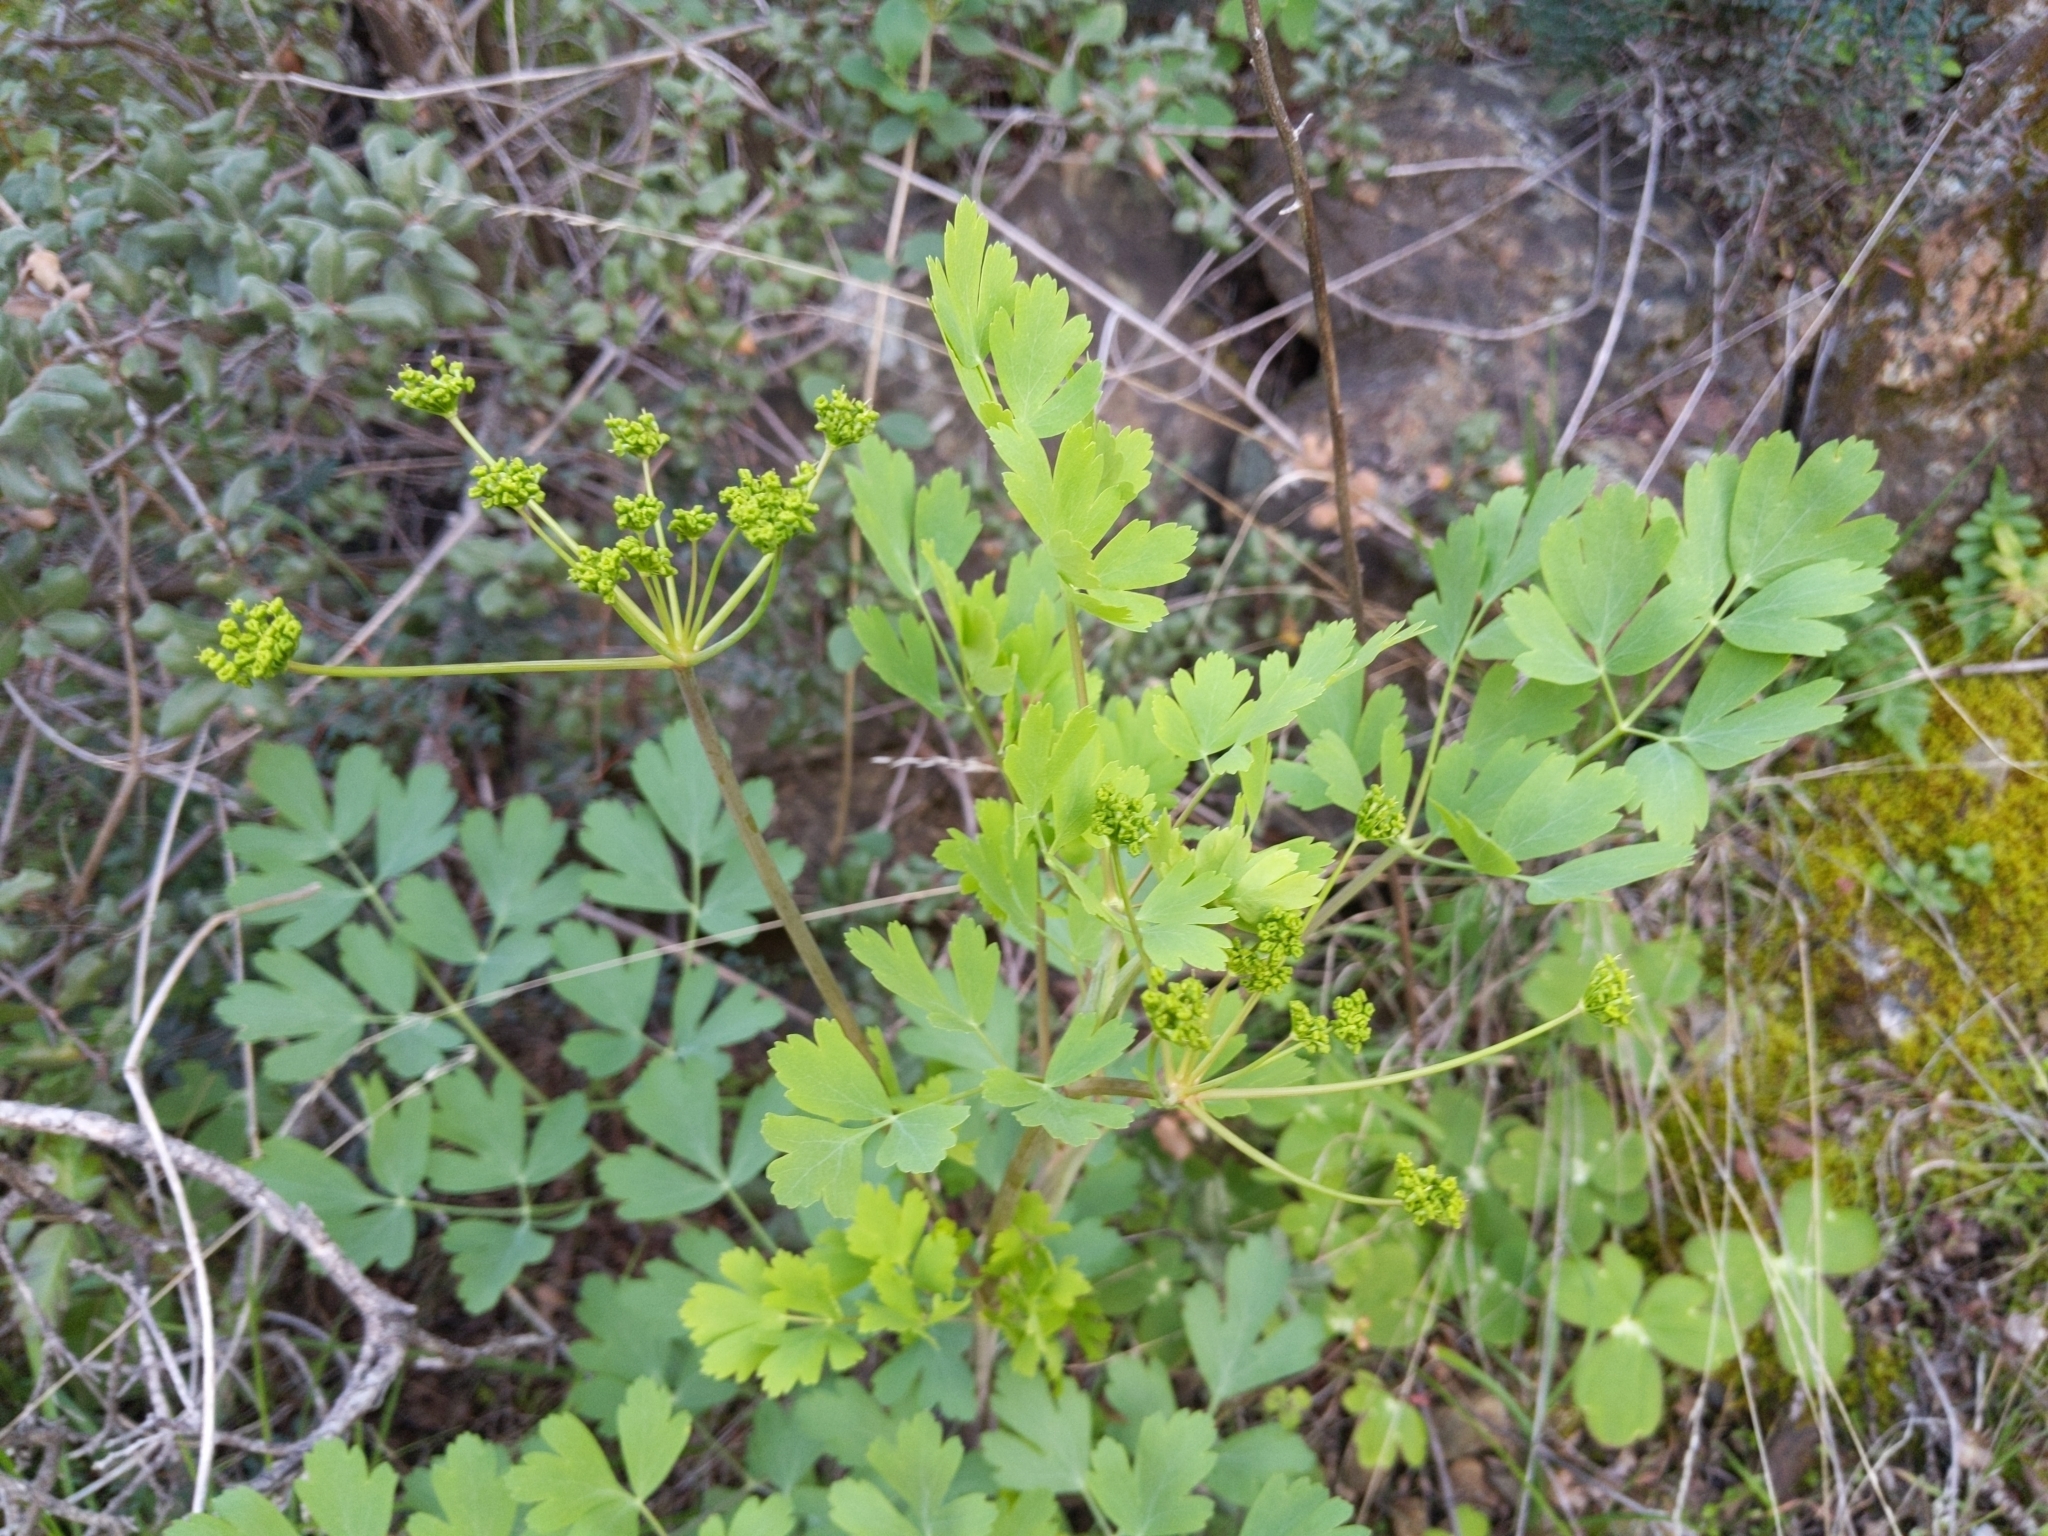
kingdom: Plantae
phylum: Tracheophyta
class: Magnoliopsida
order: Apiales
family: Apiaceae
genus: Lomatium
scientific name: Lomatium californicum
